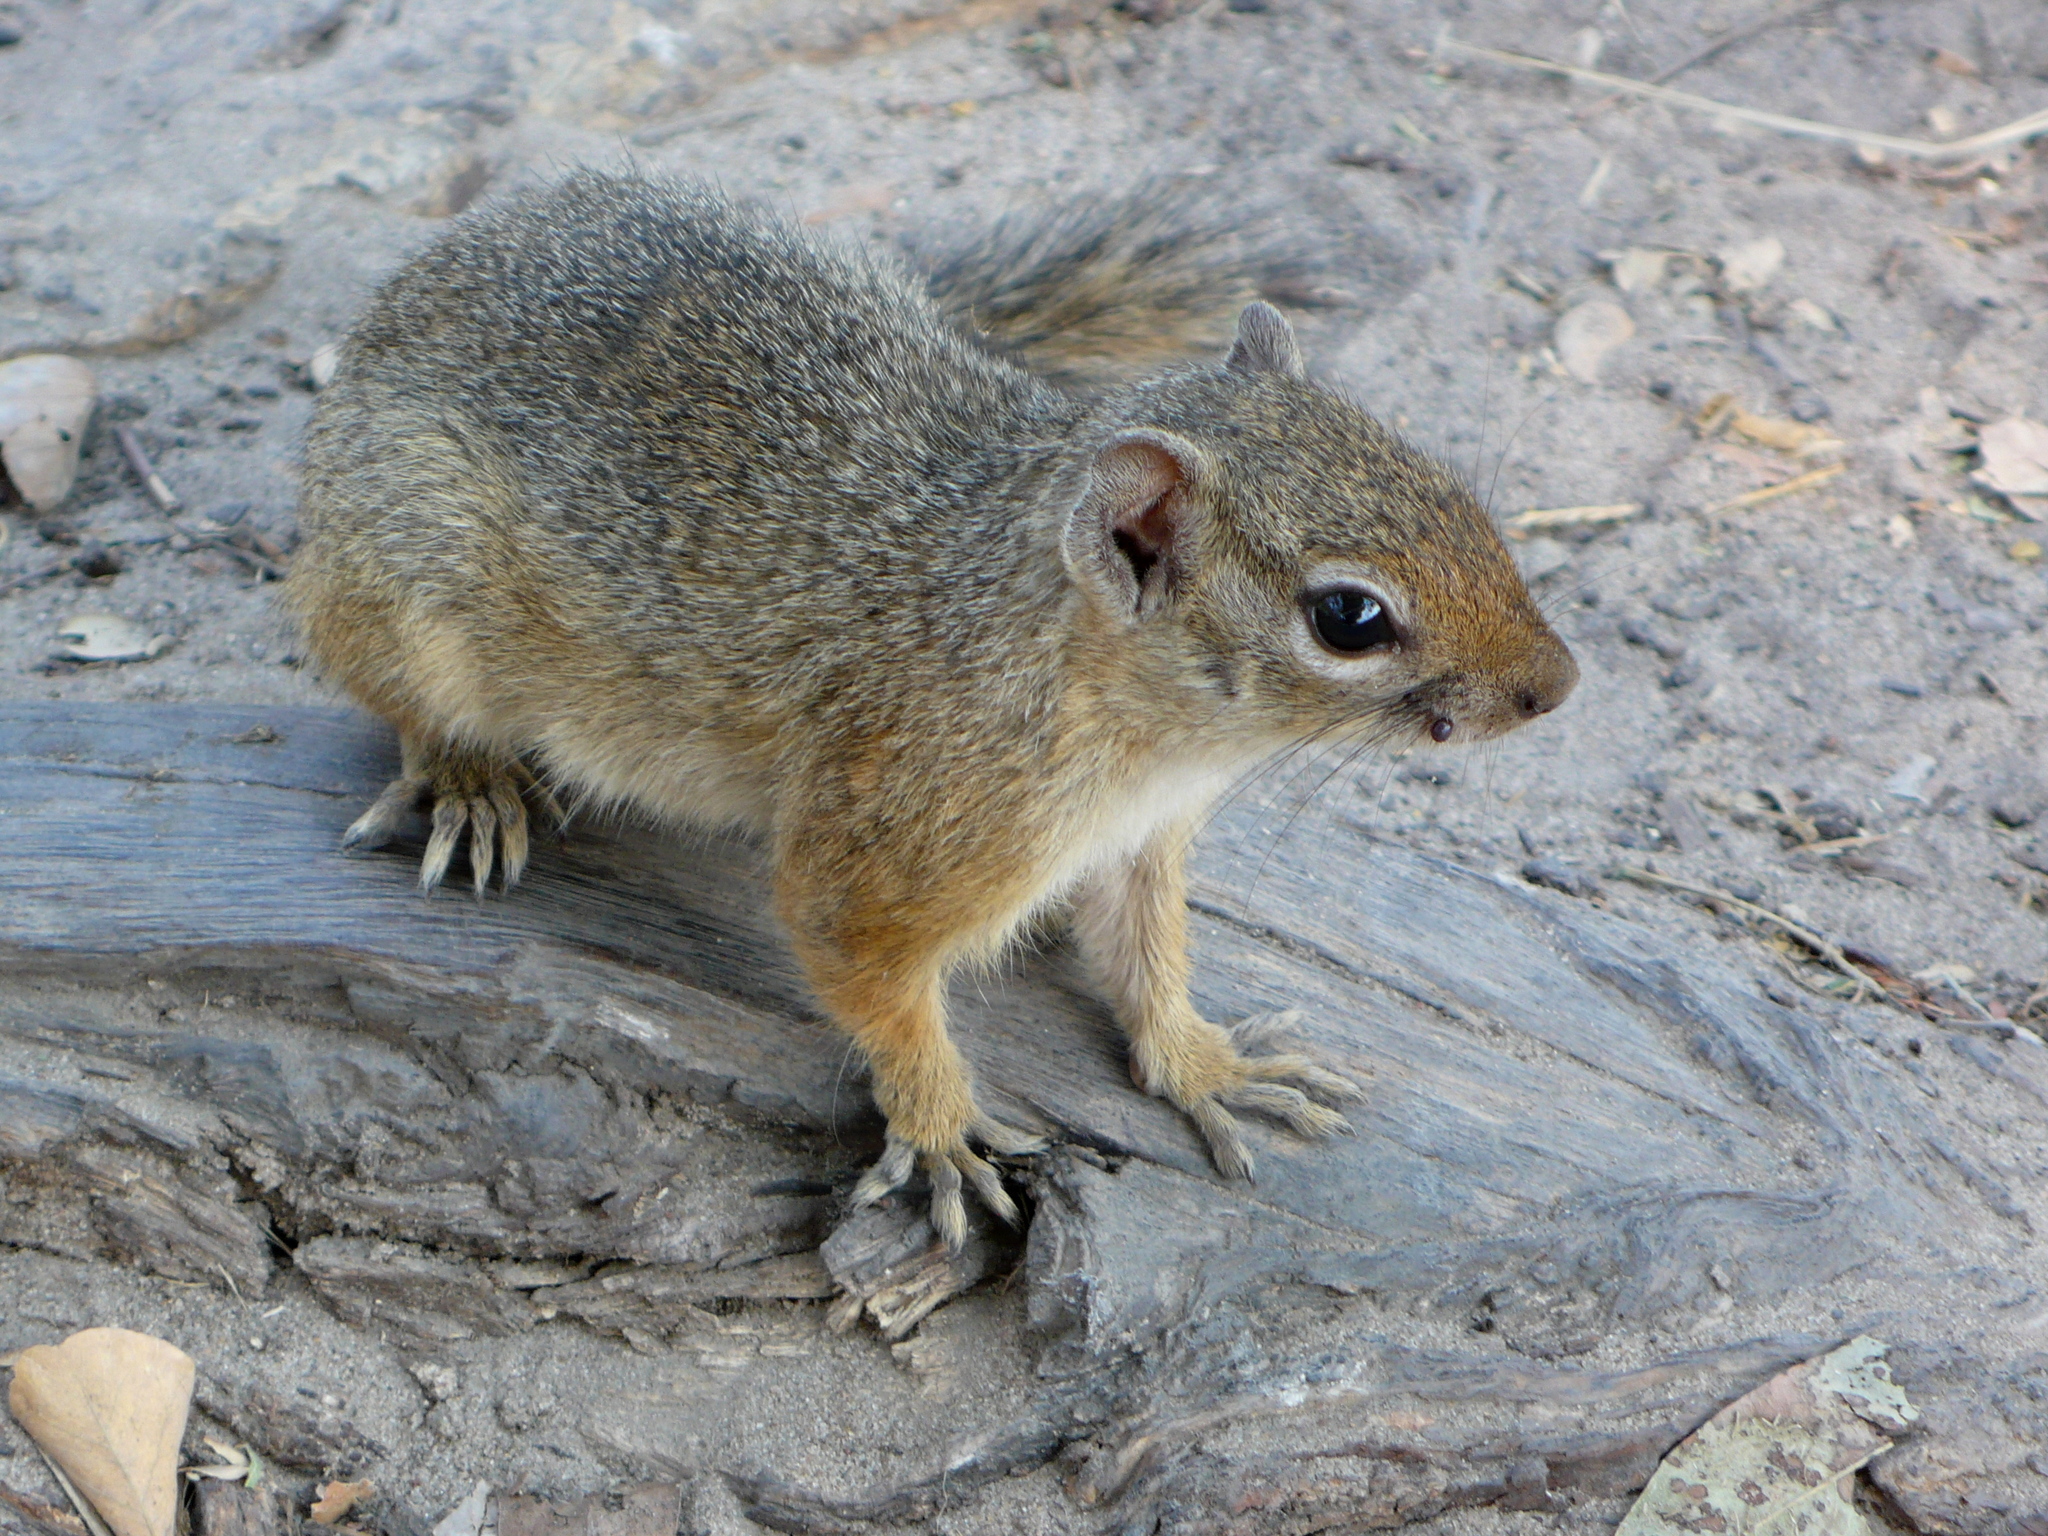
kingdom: Animalia
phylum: Chordata
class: Mammalia
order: Rodentia
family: Sciuridae
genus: Paraxerus
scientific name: Paraxerus cepapi
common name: Smith's bush squirrel
